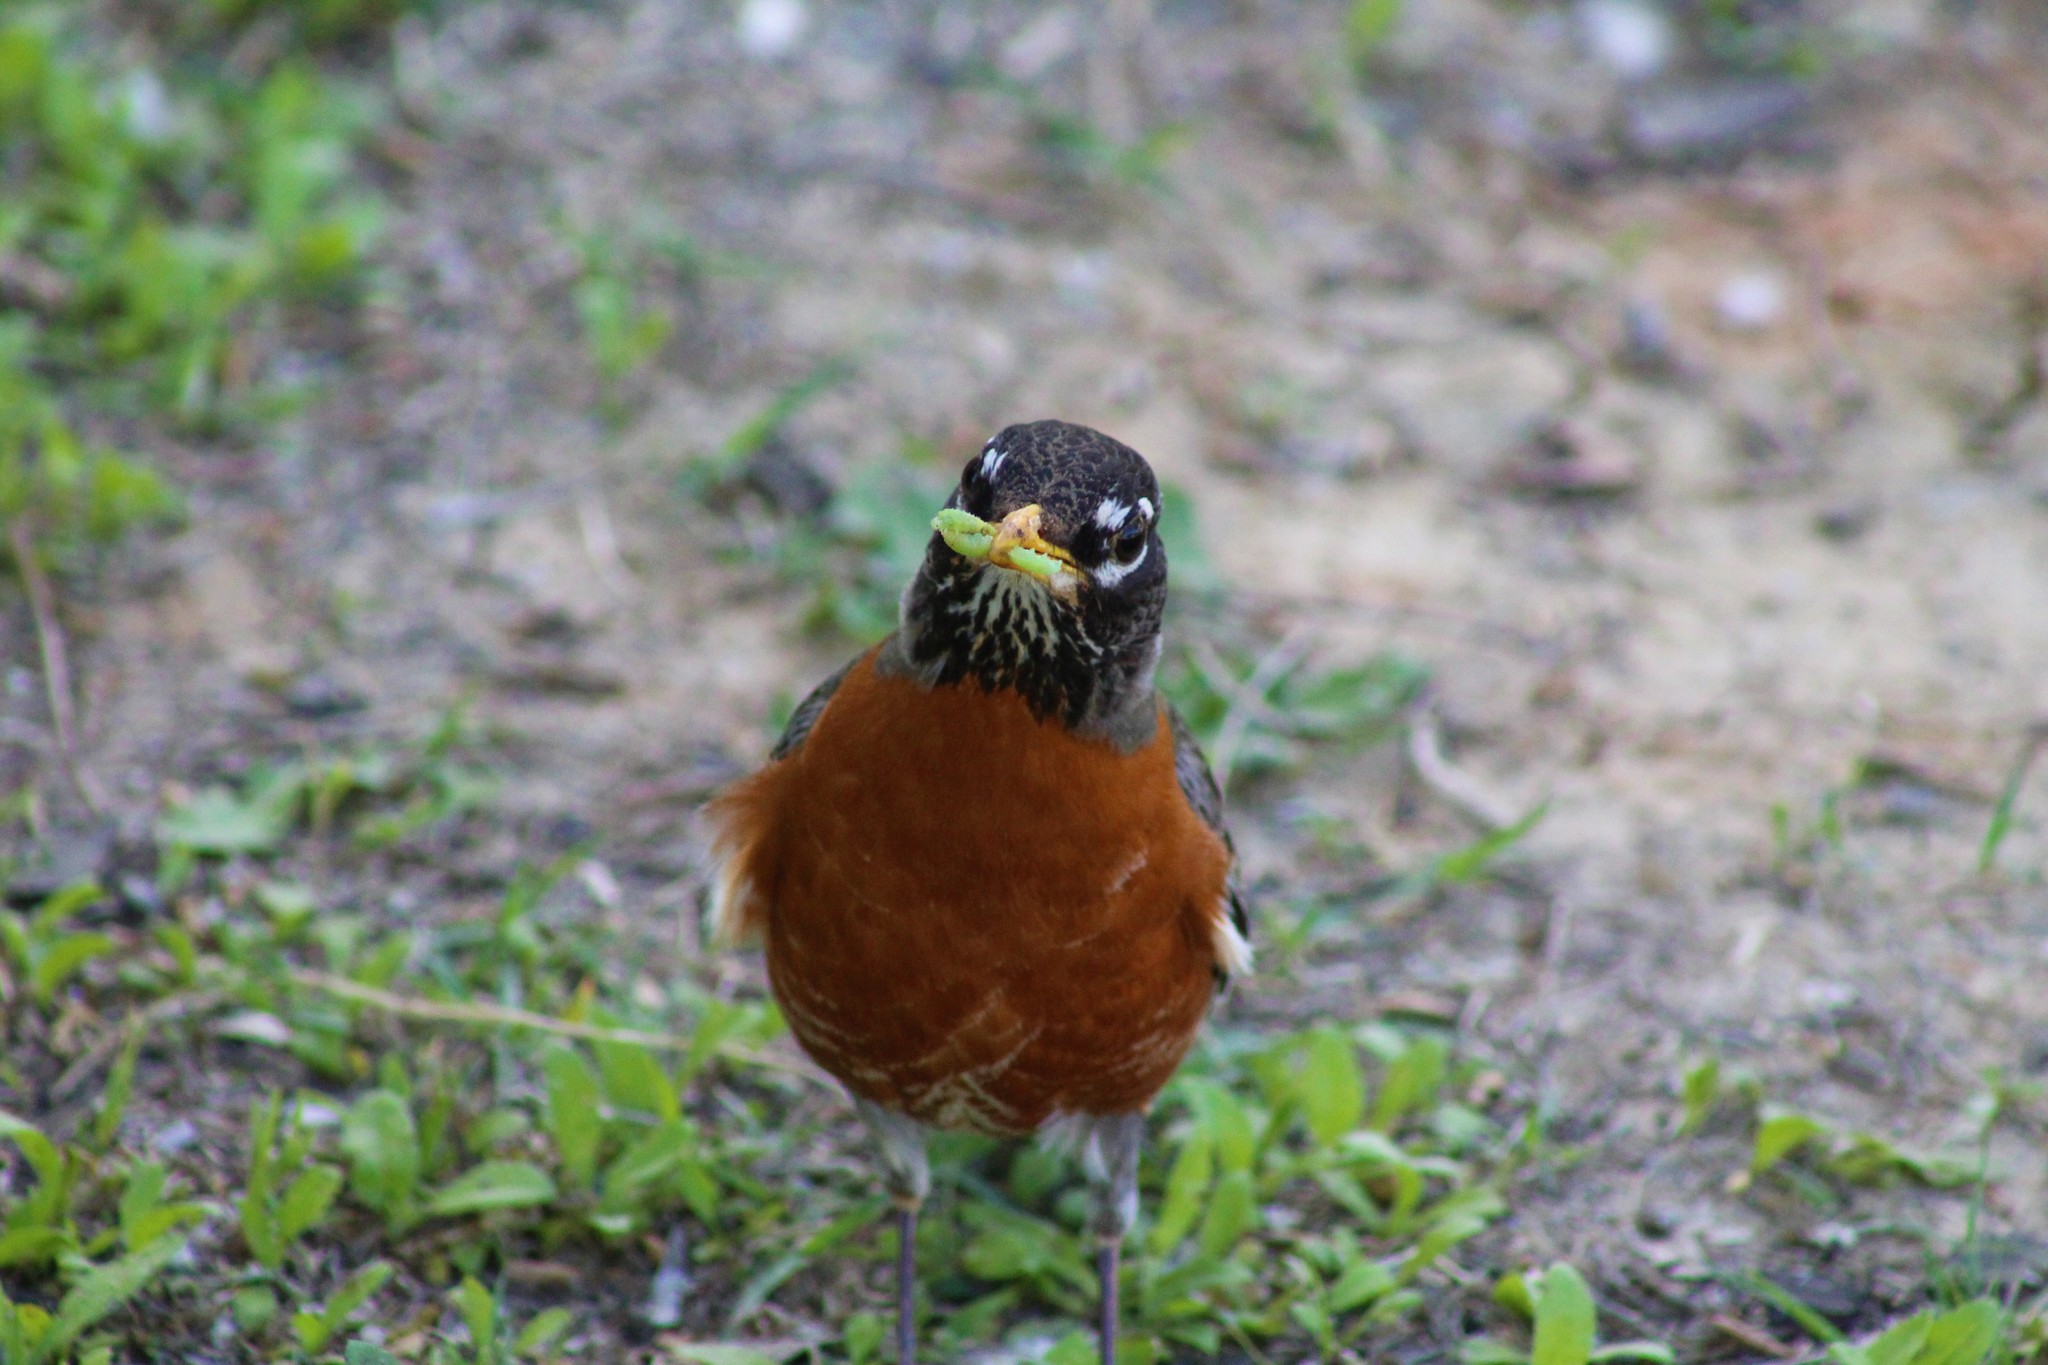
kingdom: Animalia
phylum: Chordata
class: Aves
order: Passeriformes
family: Turdidae
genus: Turdus
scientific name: Turdus migratorius
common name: American robin
